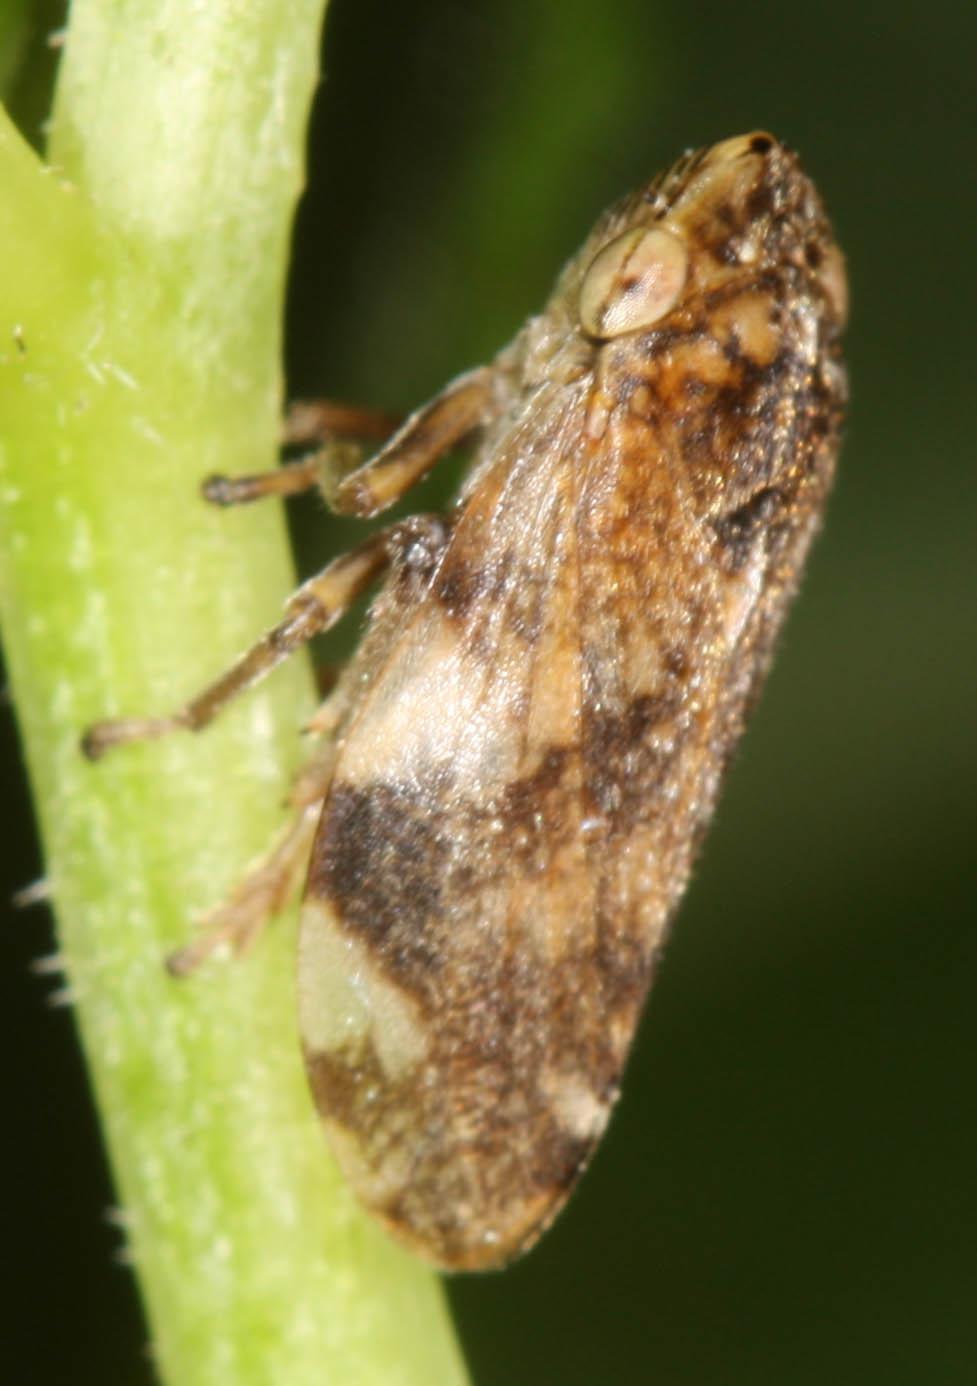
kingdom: Animalia
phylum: Arthropoda
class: Insecta
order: Hemiptera
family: Aphrophoridae
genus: Philaenus
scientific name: Philaenus spumarius
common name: Meadow spittlebug
